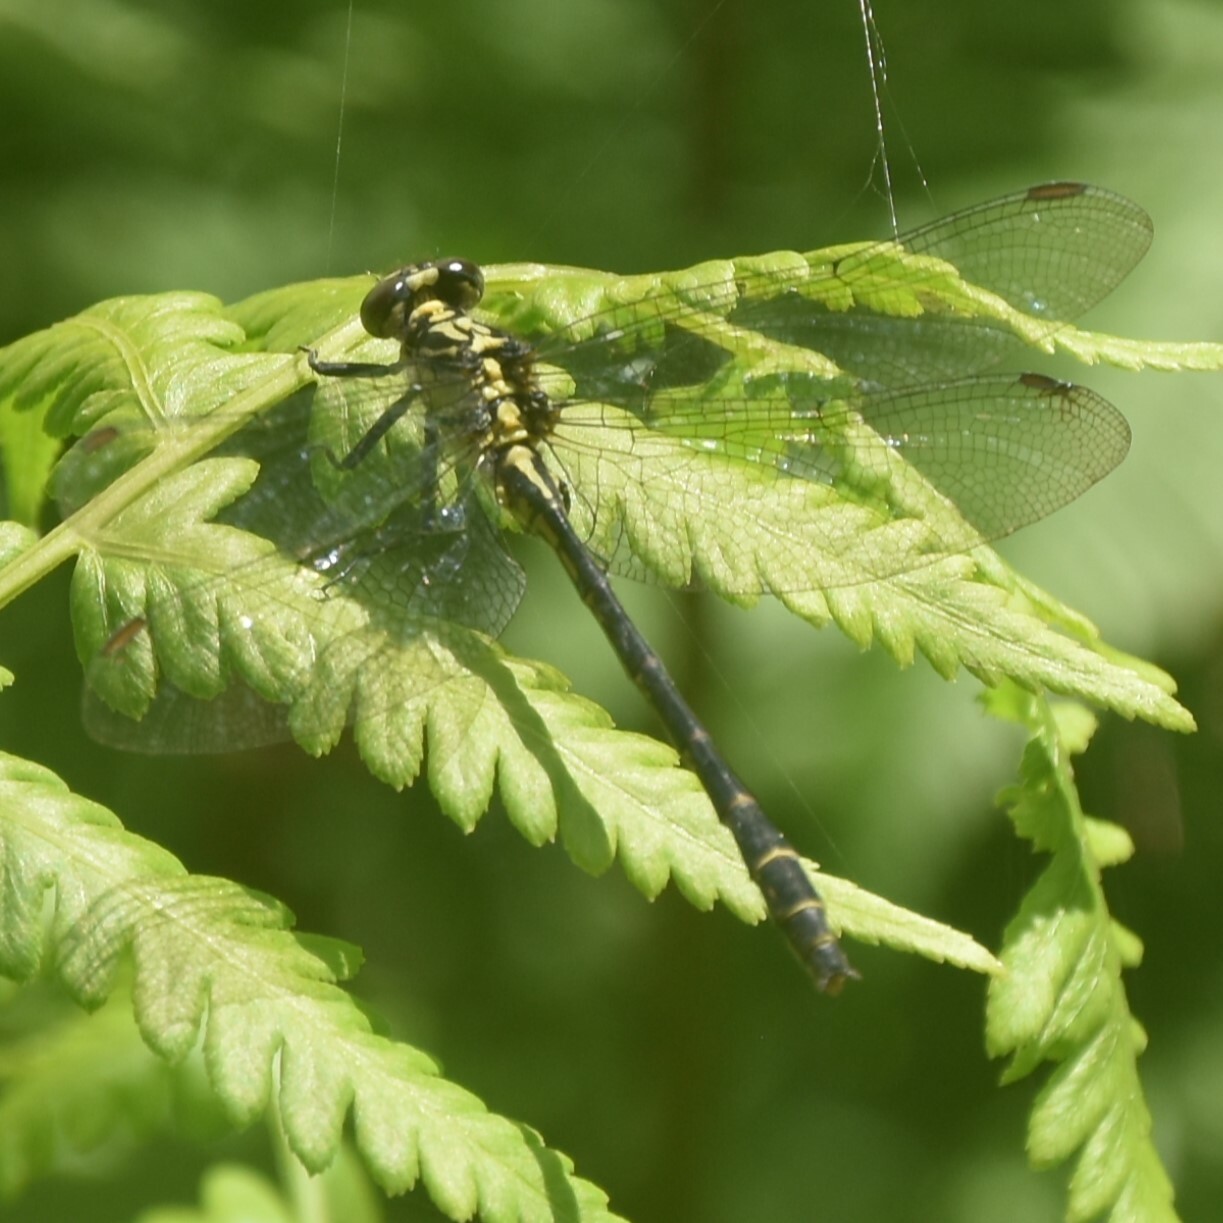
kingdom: Animalia
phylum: Arthropoda
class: Insecta
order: Odonata
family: Gomphidae
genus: Davidius
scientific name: Davidius aberrans
